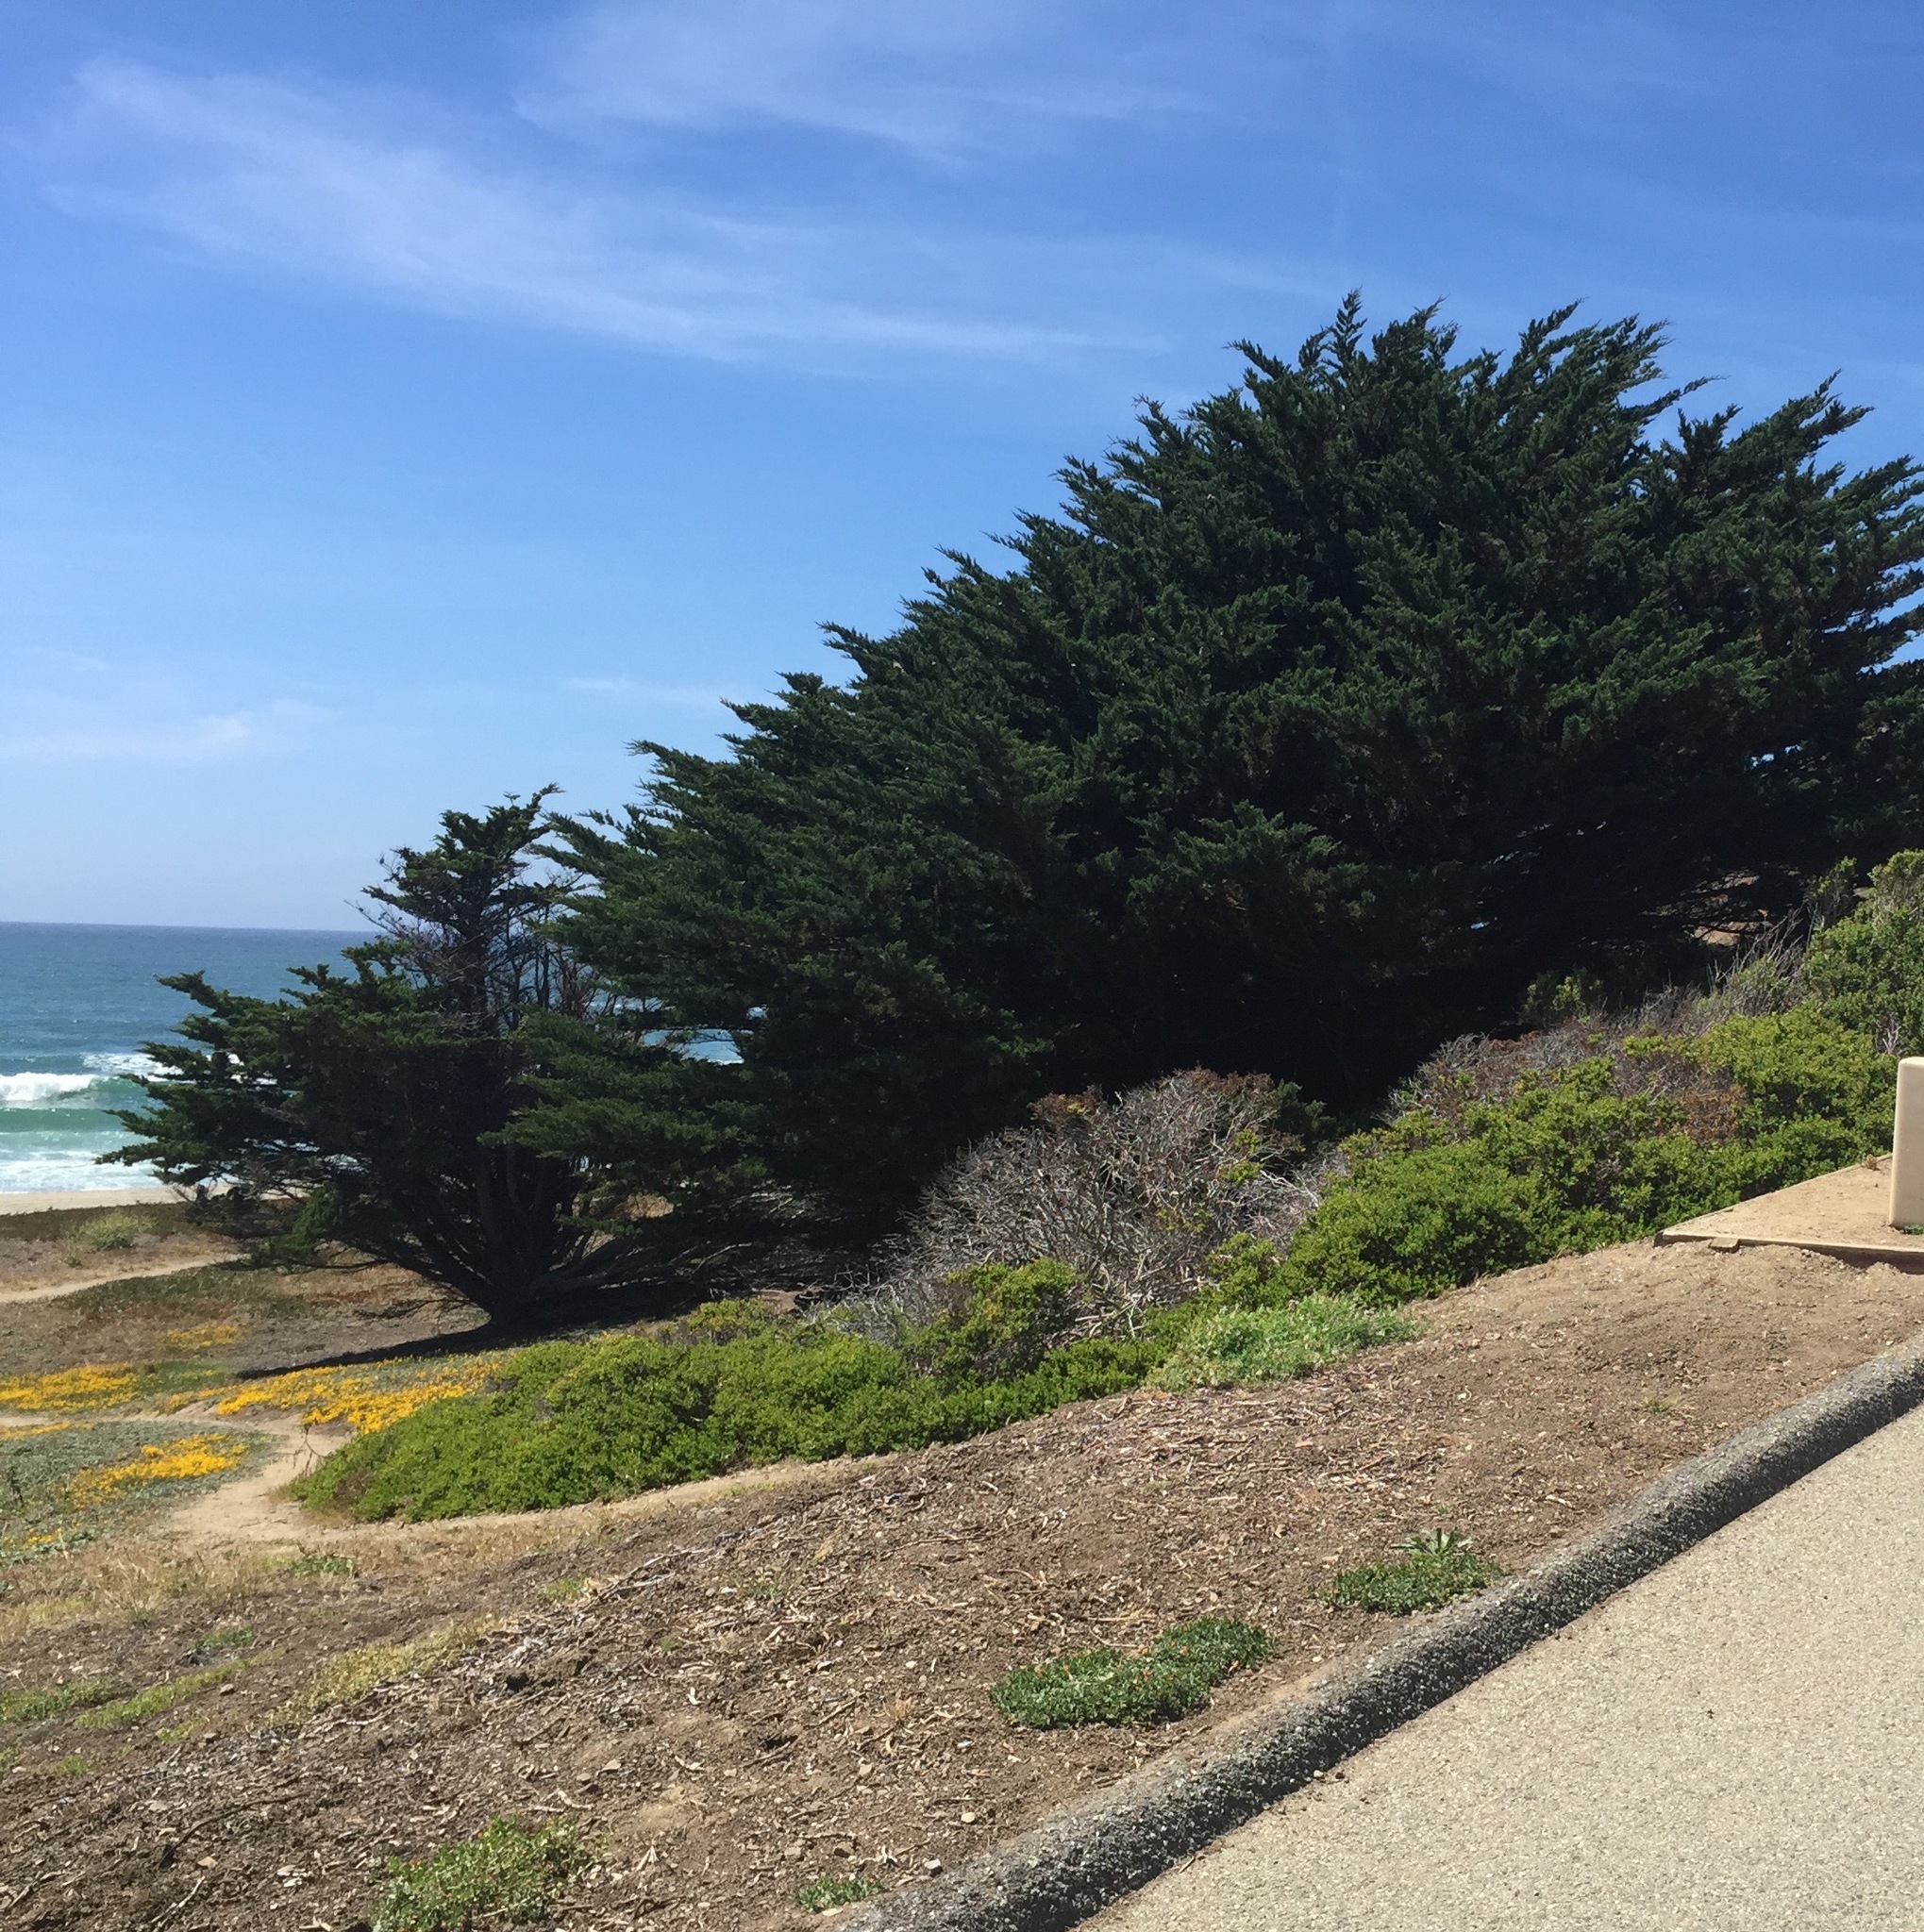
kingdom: Plantae
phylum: Tracheophyta
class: Pinopsida
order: Pinales
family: Cupressaceae
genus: Cupressus
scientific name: Cupressus macrocarpa
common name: Monterey cypress
